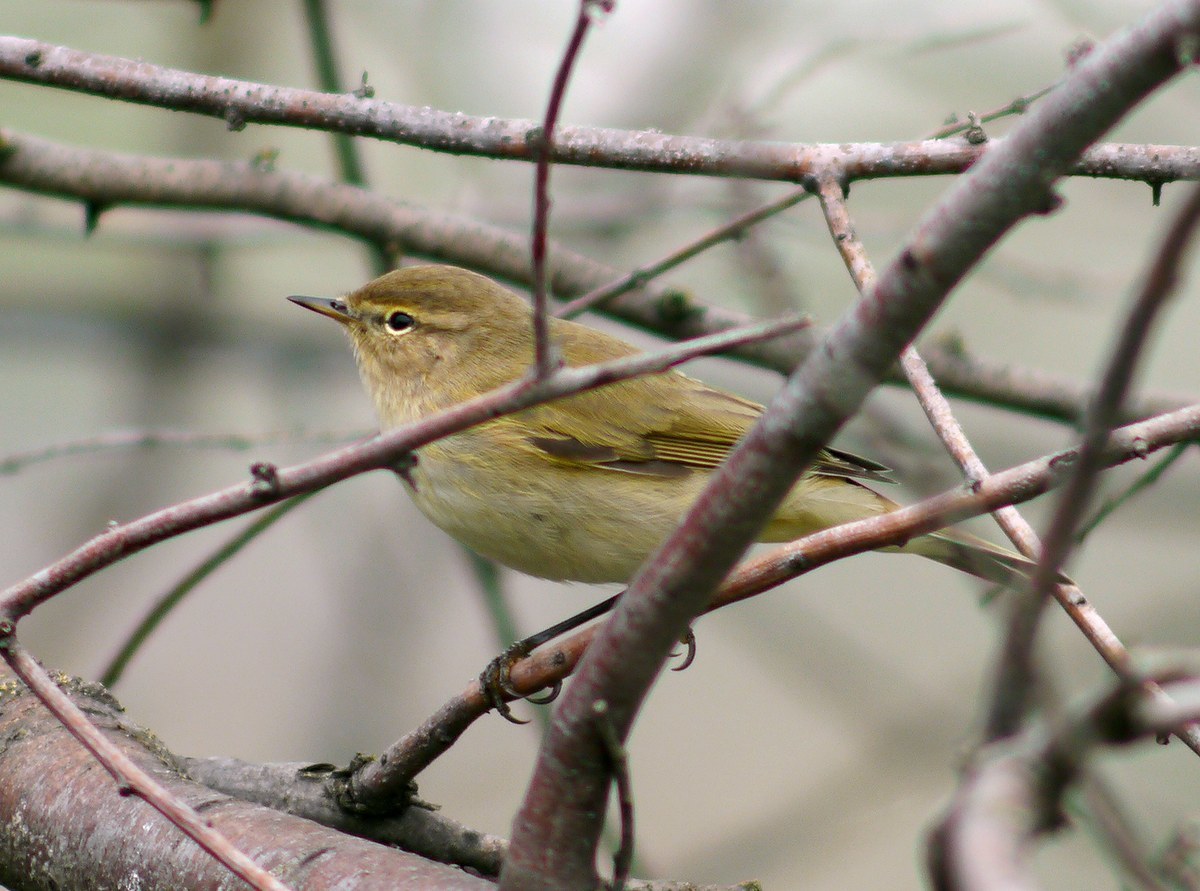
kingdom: Animalia
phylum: Chordata
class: Aves
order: Passeriformes
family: Phylloscopidae
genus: Phylloscopus
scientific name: Phylloscopus collybita
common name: Common chiffchaff
